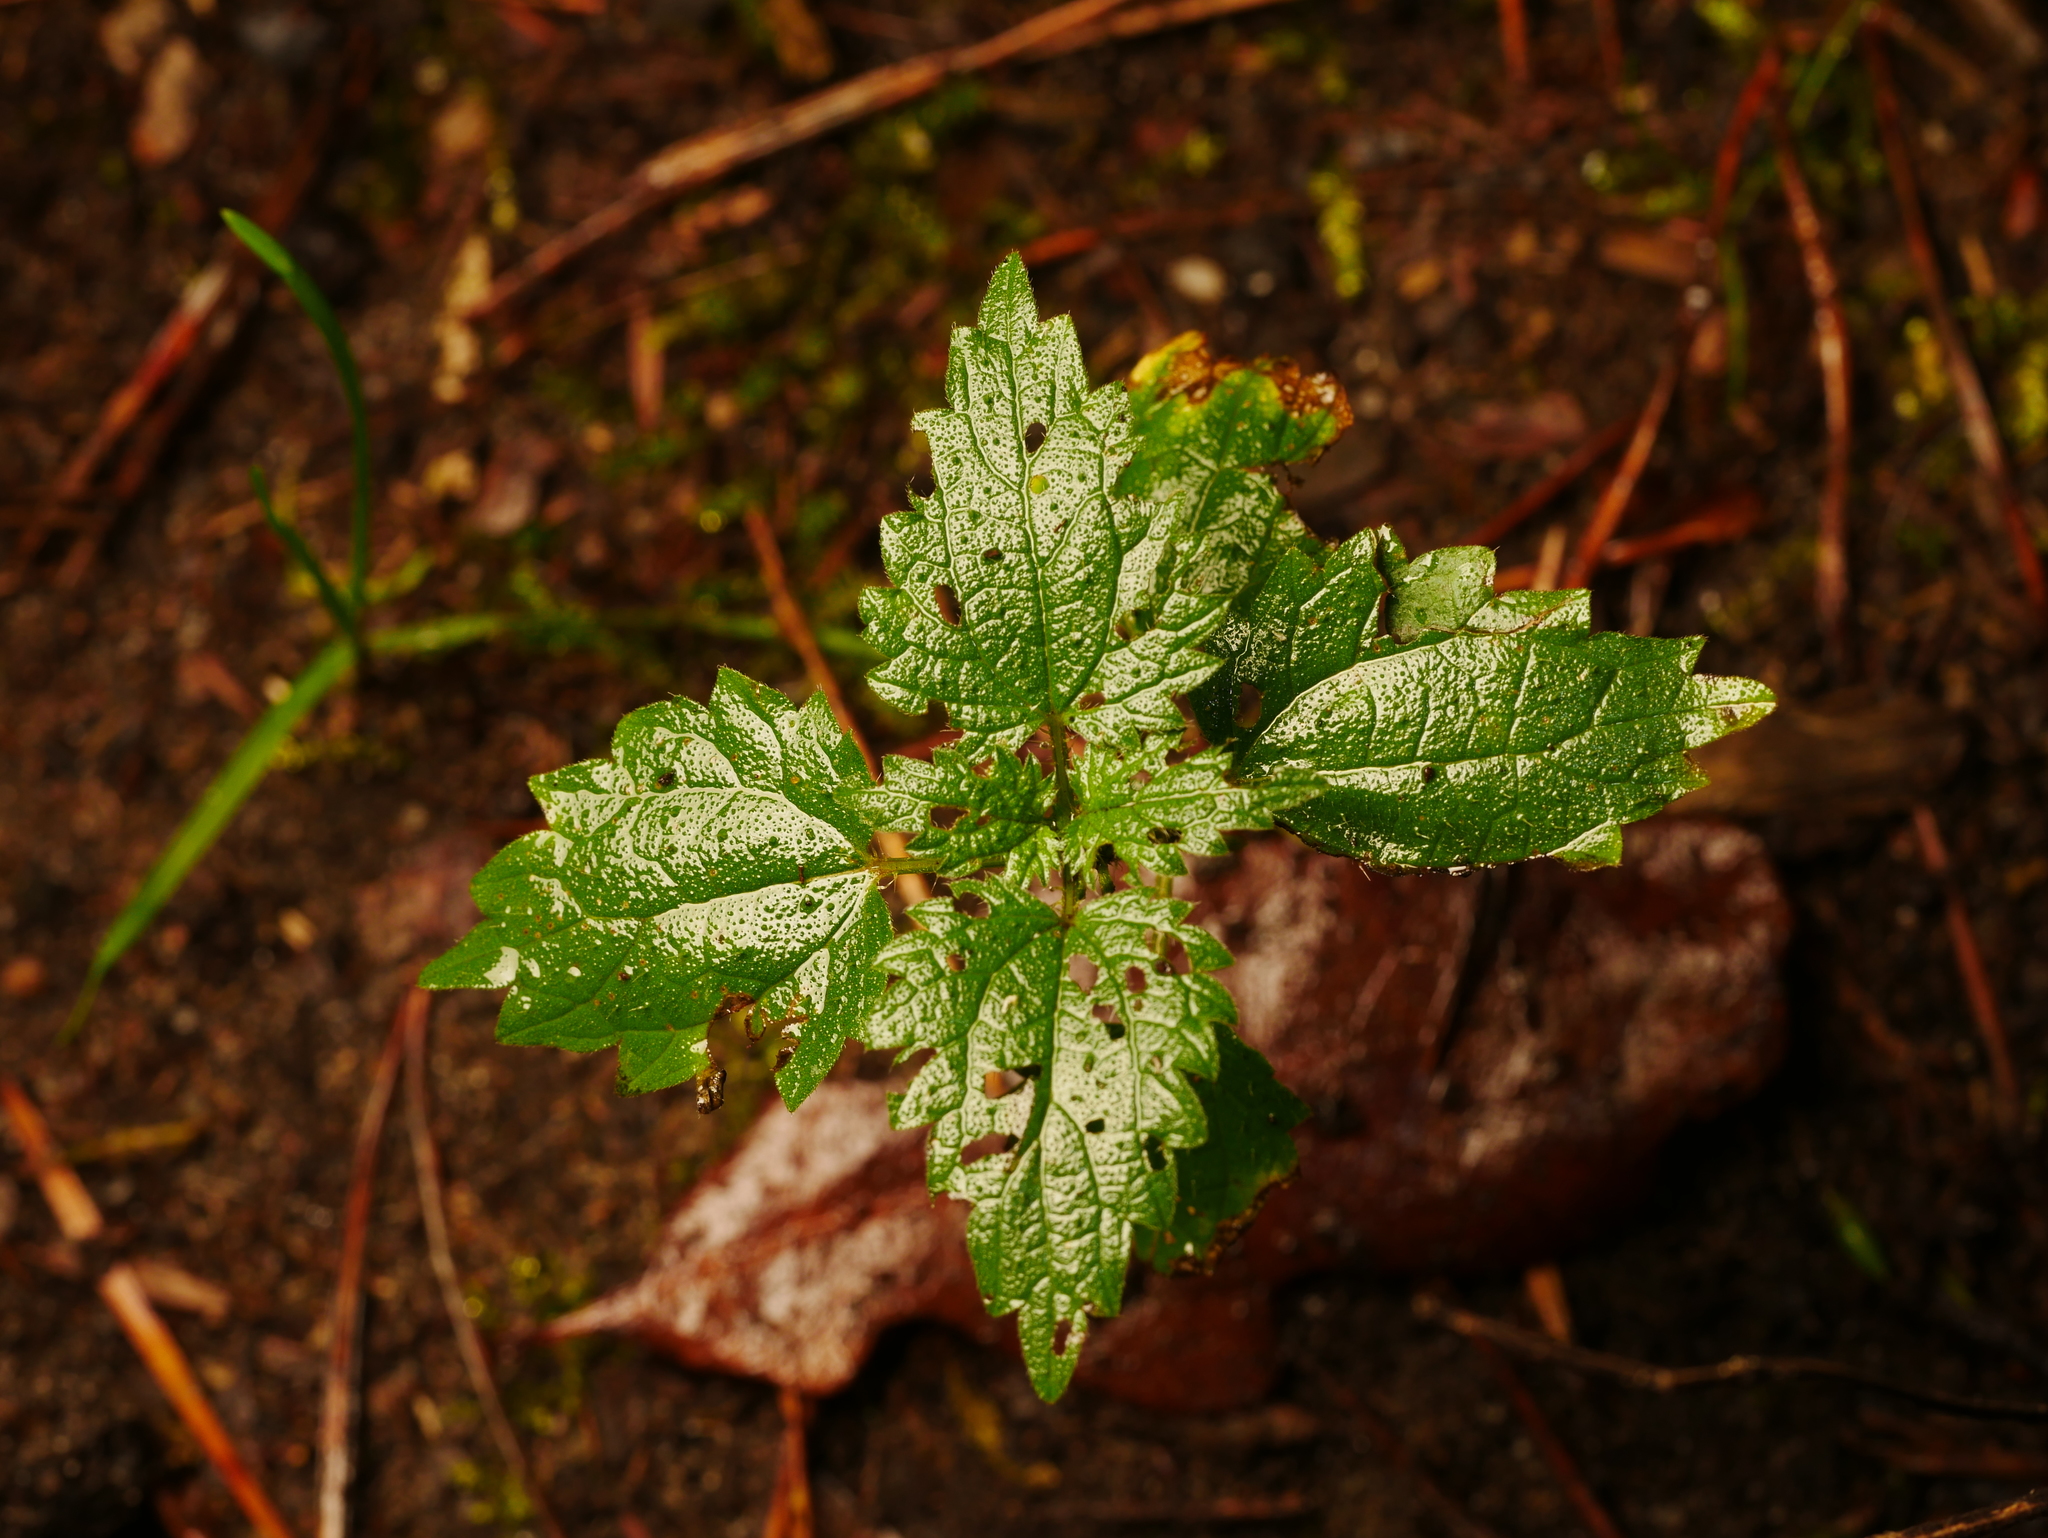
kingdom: Plantae
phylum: Tracheophyta
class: Magnoliopsida
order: Rosales
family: Urticaceae
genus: Urtica
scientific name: Urtica dioica
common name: Common nettle
